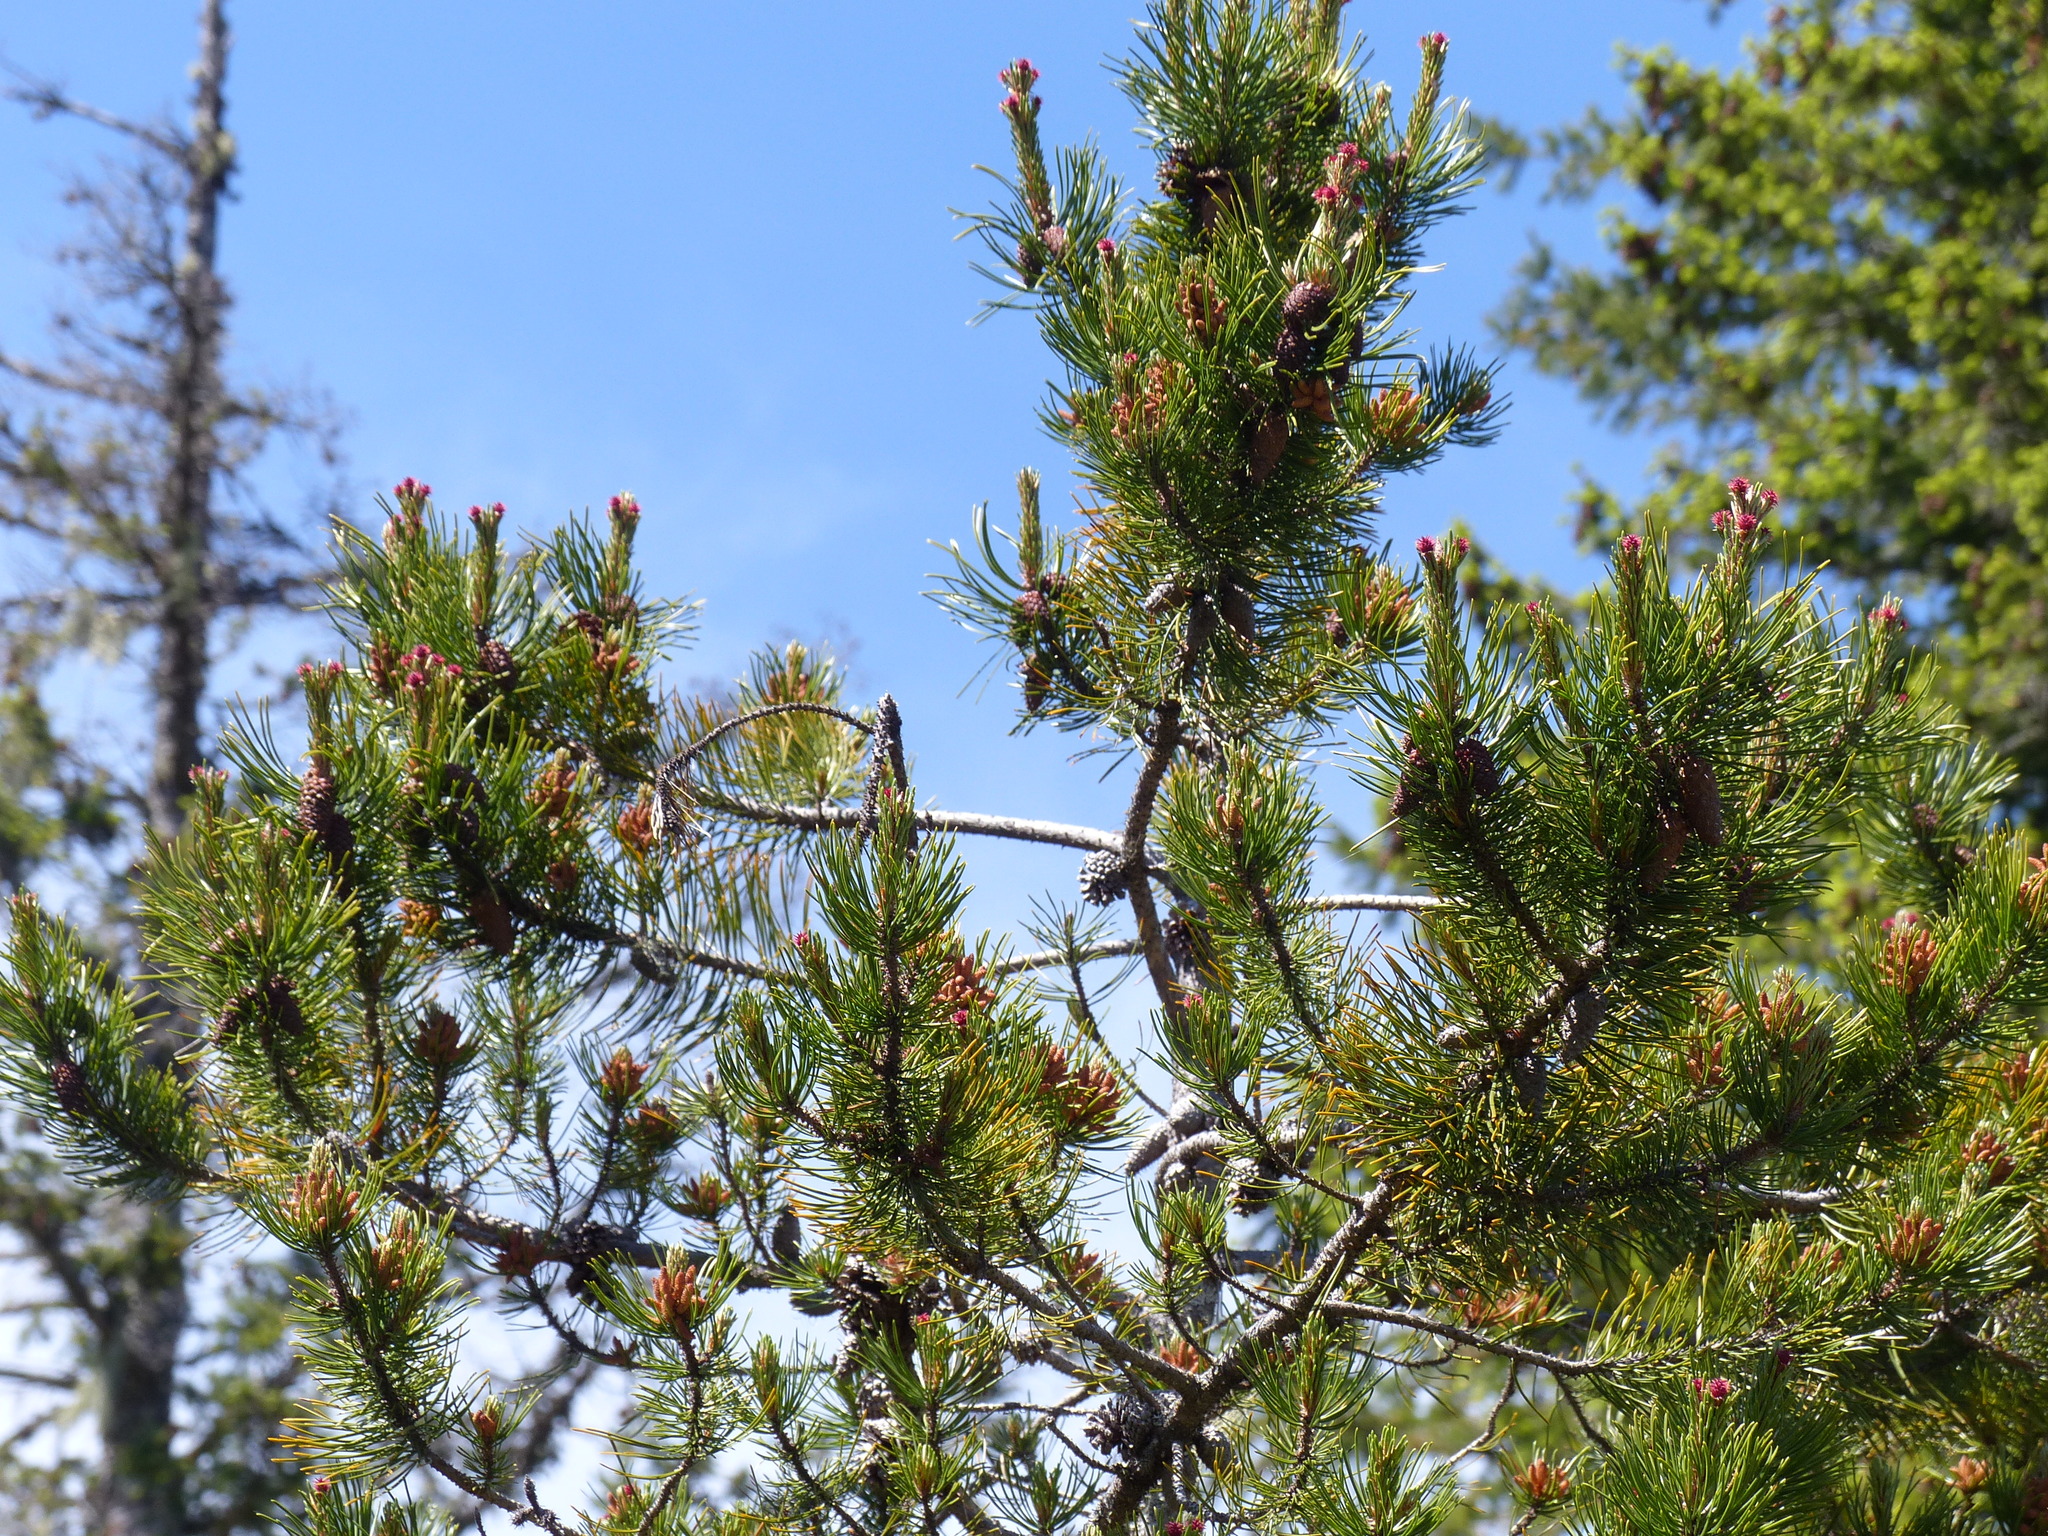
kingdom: Plantae
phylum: Tracheophyta
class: Pinopsida
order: Pinales
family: Pinaceae
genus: Pinus
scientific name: Pinus contorta
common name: Lodgepole pine
